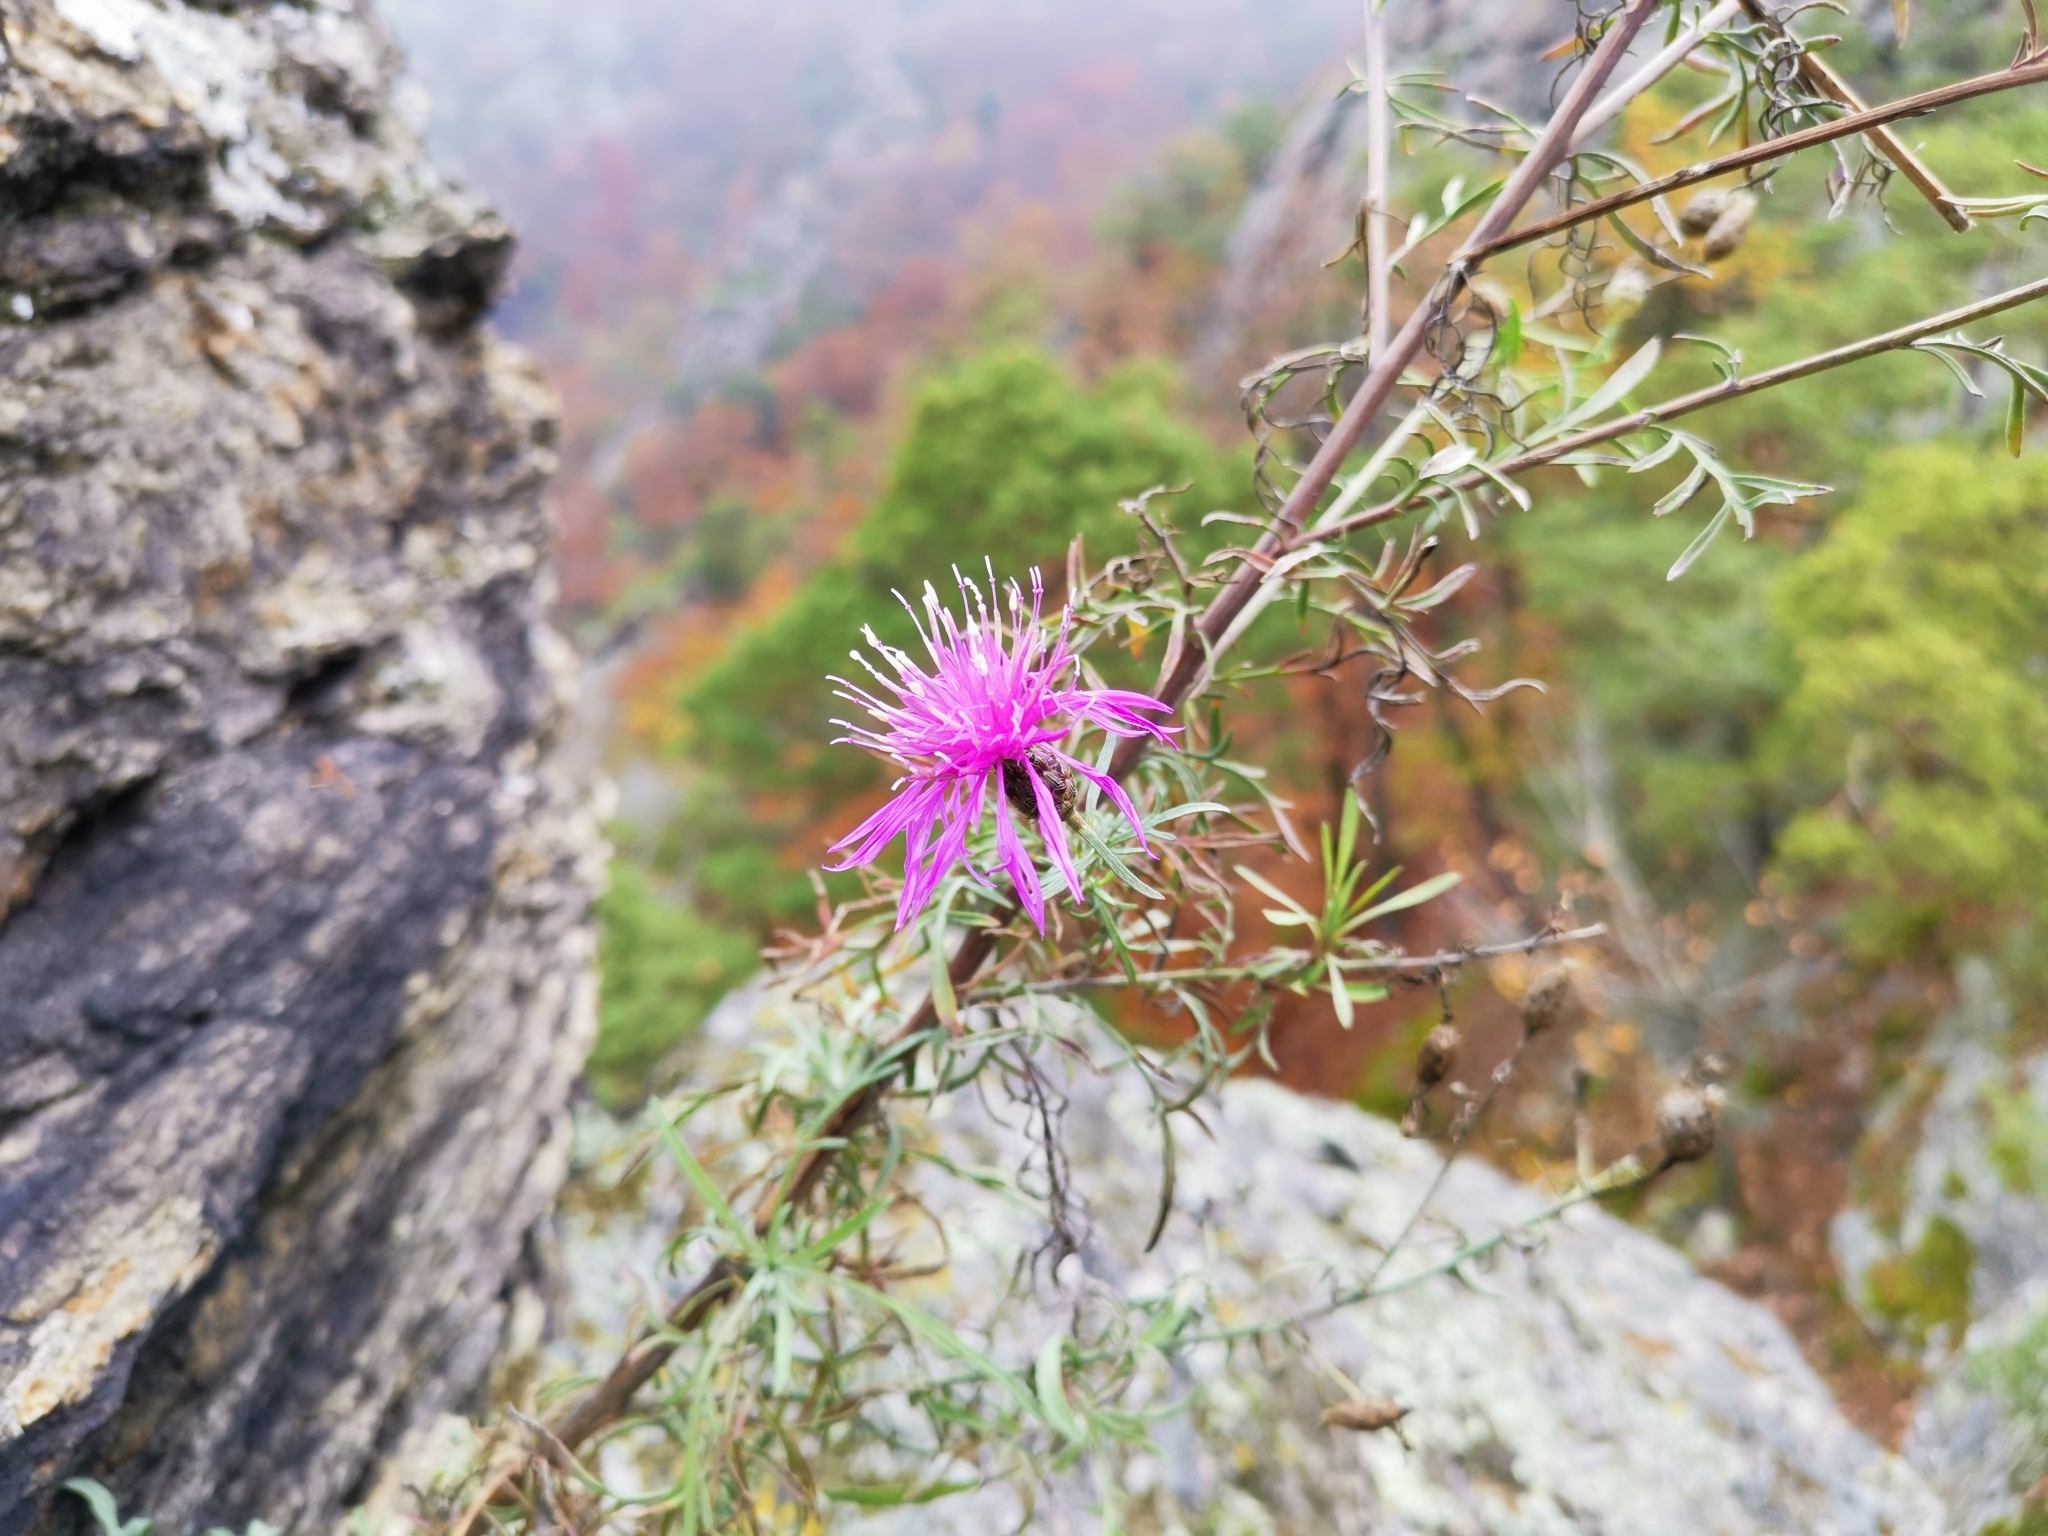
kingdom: Plantae
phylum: Tracheophyta
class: Magnoliopsida
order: Asterales
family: Asteraceae
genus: Centaurea
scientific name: Centaurea stoebe
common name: Spotted knapweed
